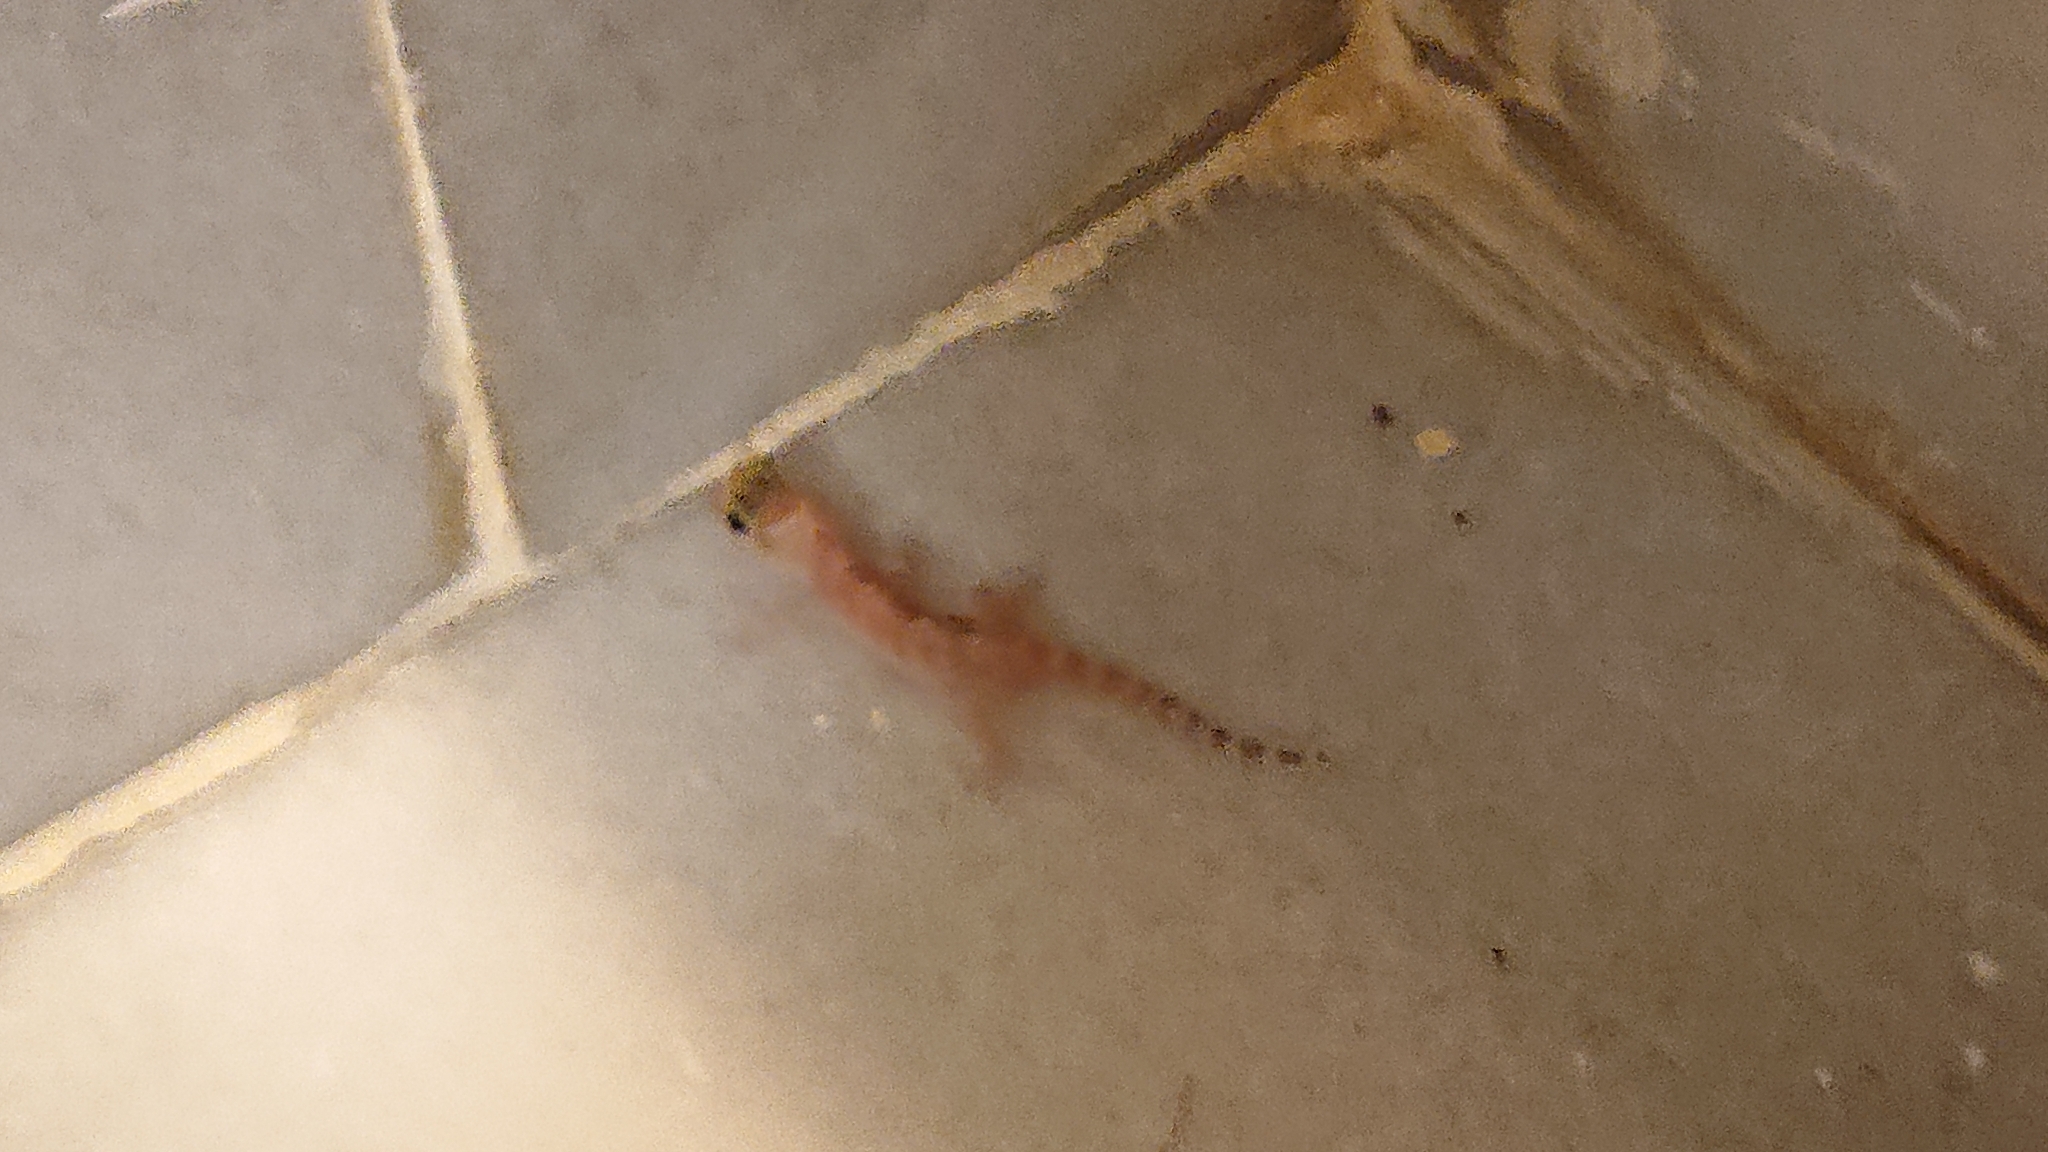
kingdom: Animalia
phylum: Chordata
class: Squamata
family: Gekkonidae
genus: Hemidactylus
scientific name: Hemidactylus turcicus
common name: Turkish gecko
